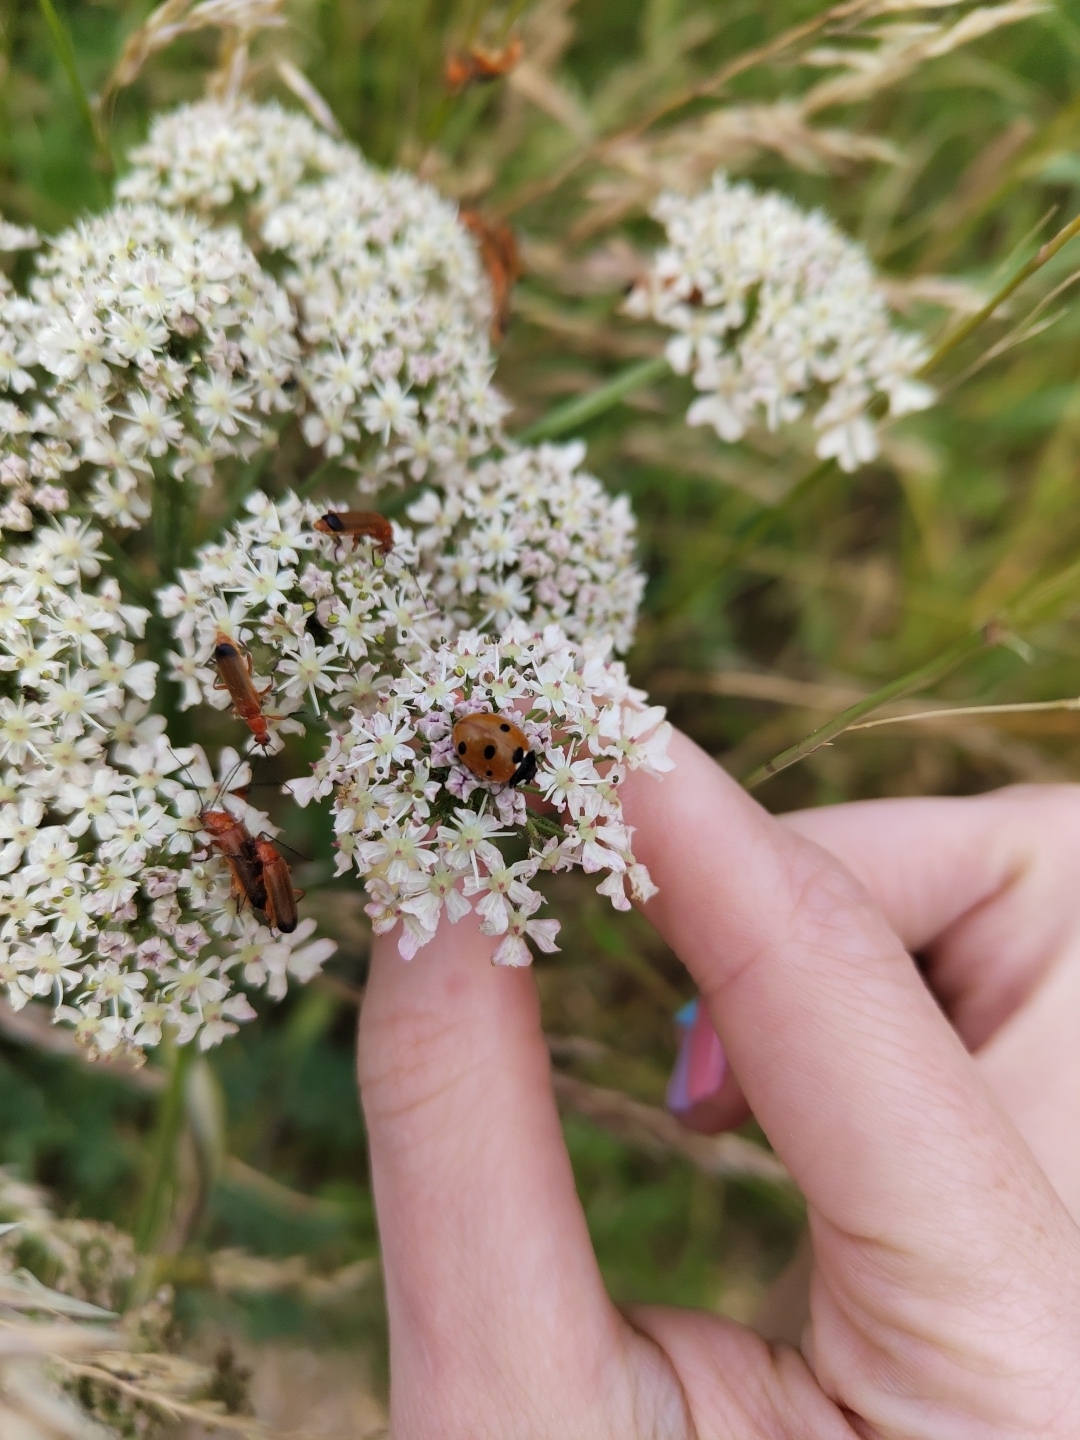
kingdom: Animalia
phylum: Arthropoda
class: Insecta
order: Coleoptera
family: Coccinellidae
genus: Coccinella
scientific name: Coccinella septempunctata
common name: Sevenspotted lady beetle
